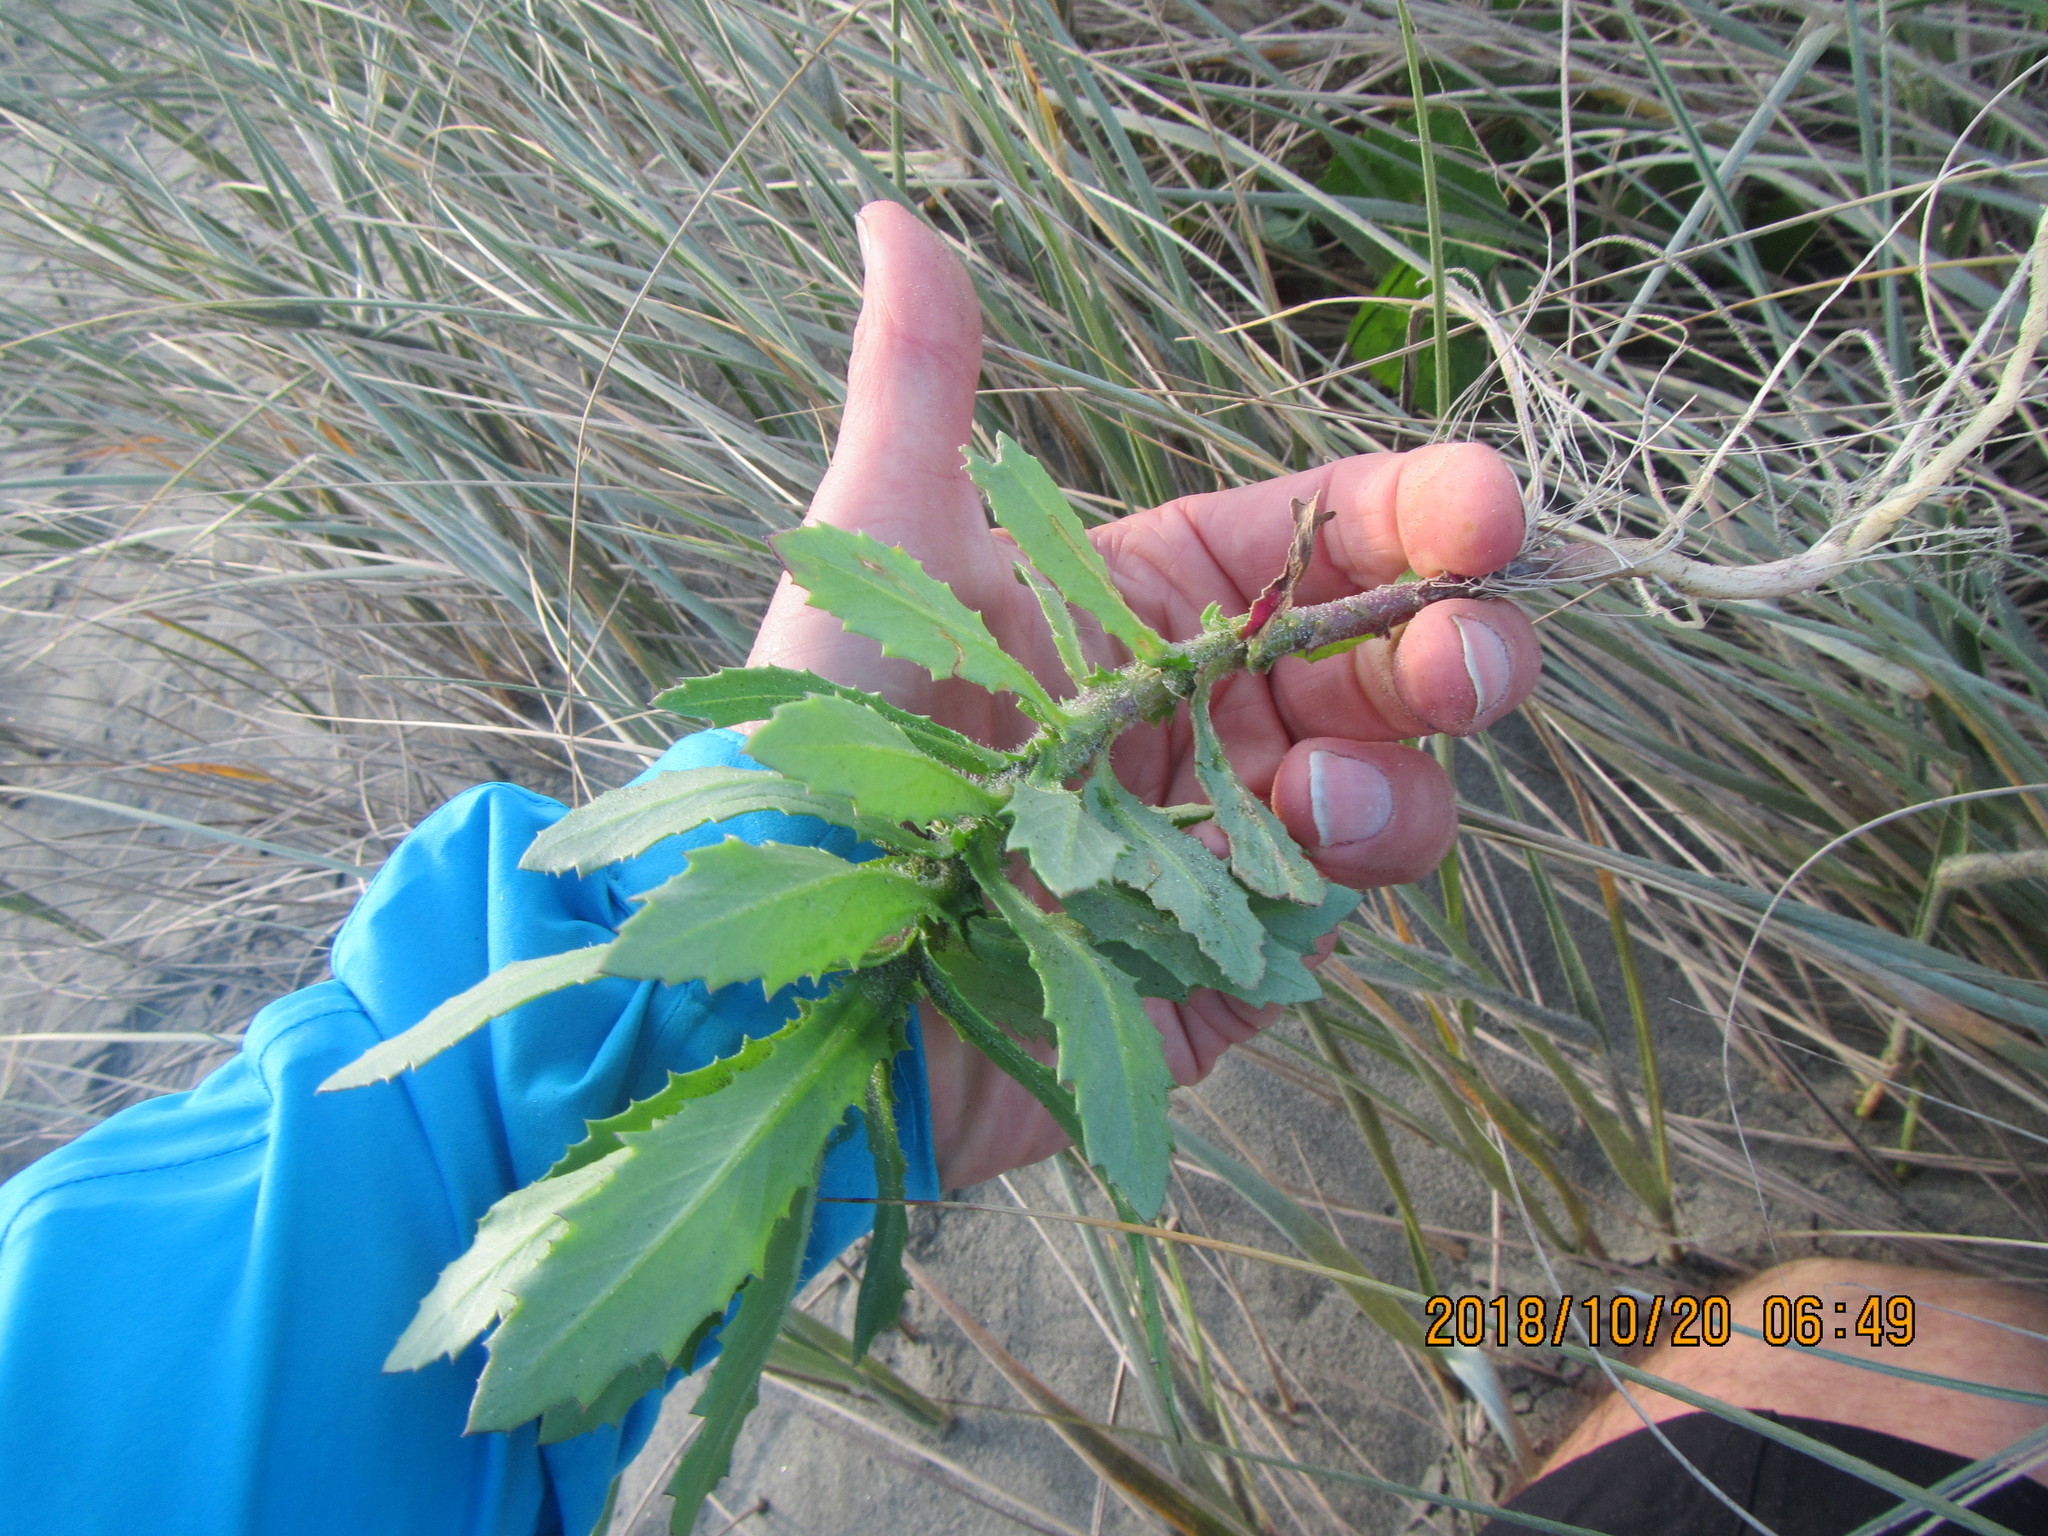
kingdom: Plantae
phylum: Tracheophyta
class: Magnoliopsida
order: Asterales
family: Asteraceae
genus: Senecio
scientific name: Senecio glastifolius
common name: Woad-leaved ragwort
